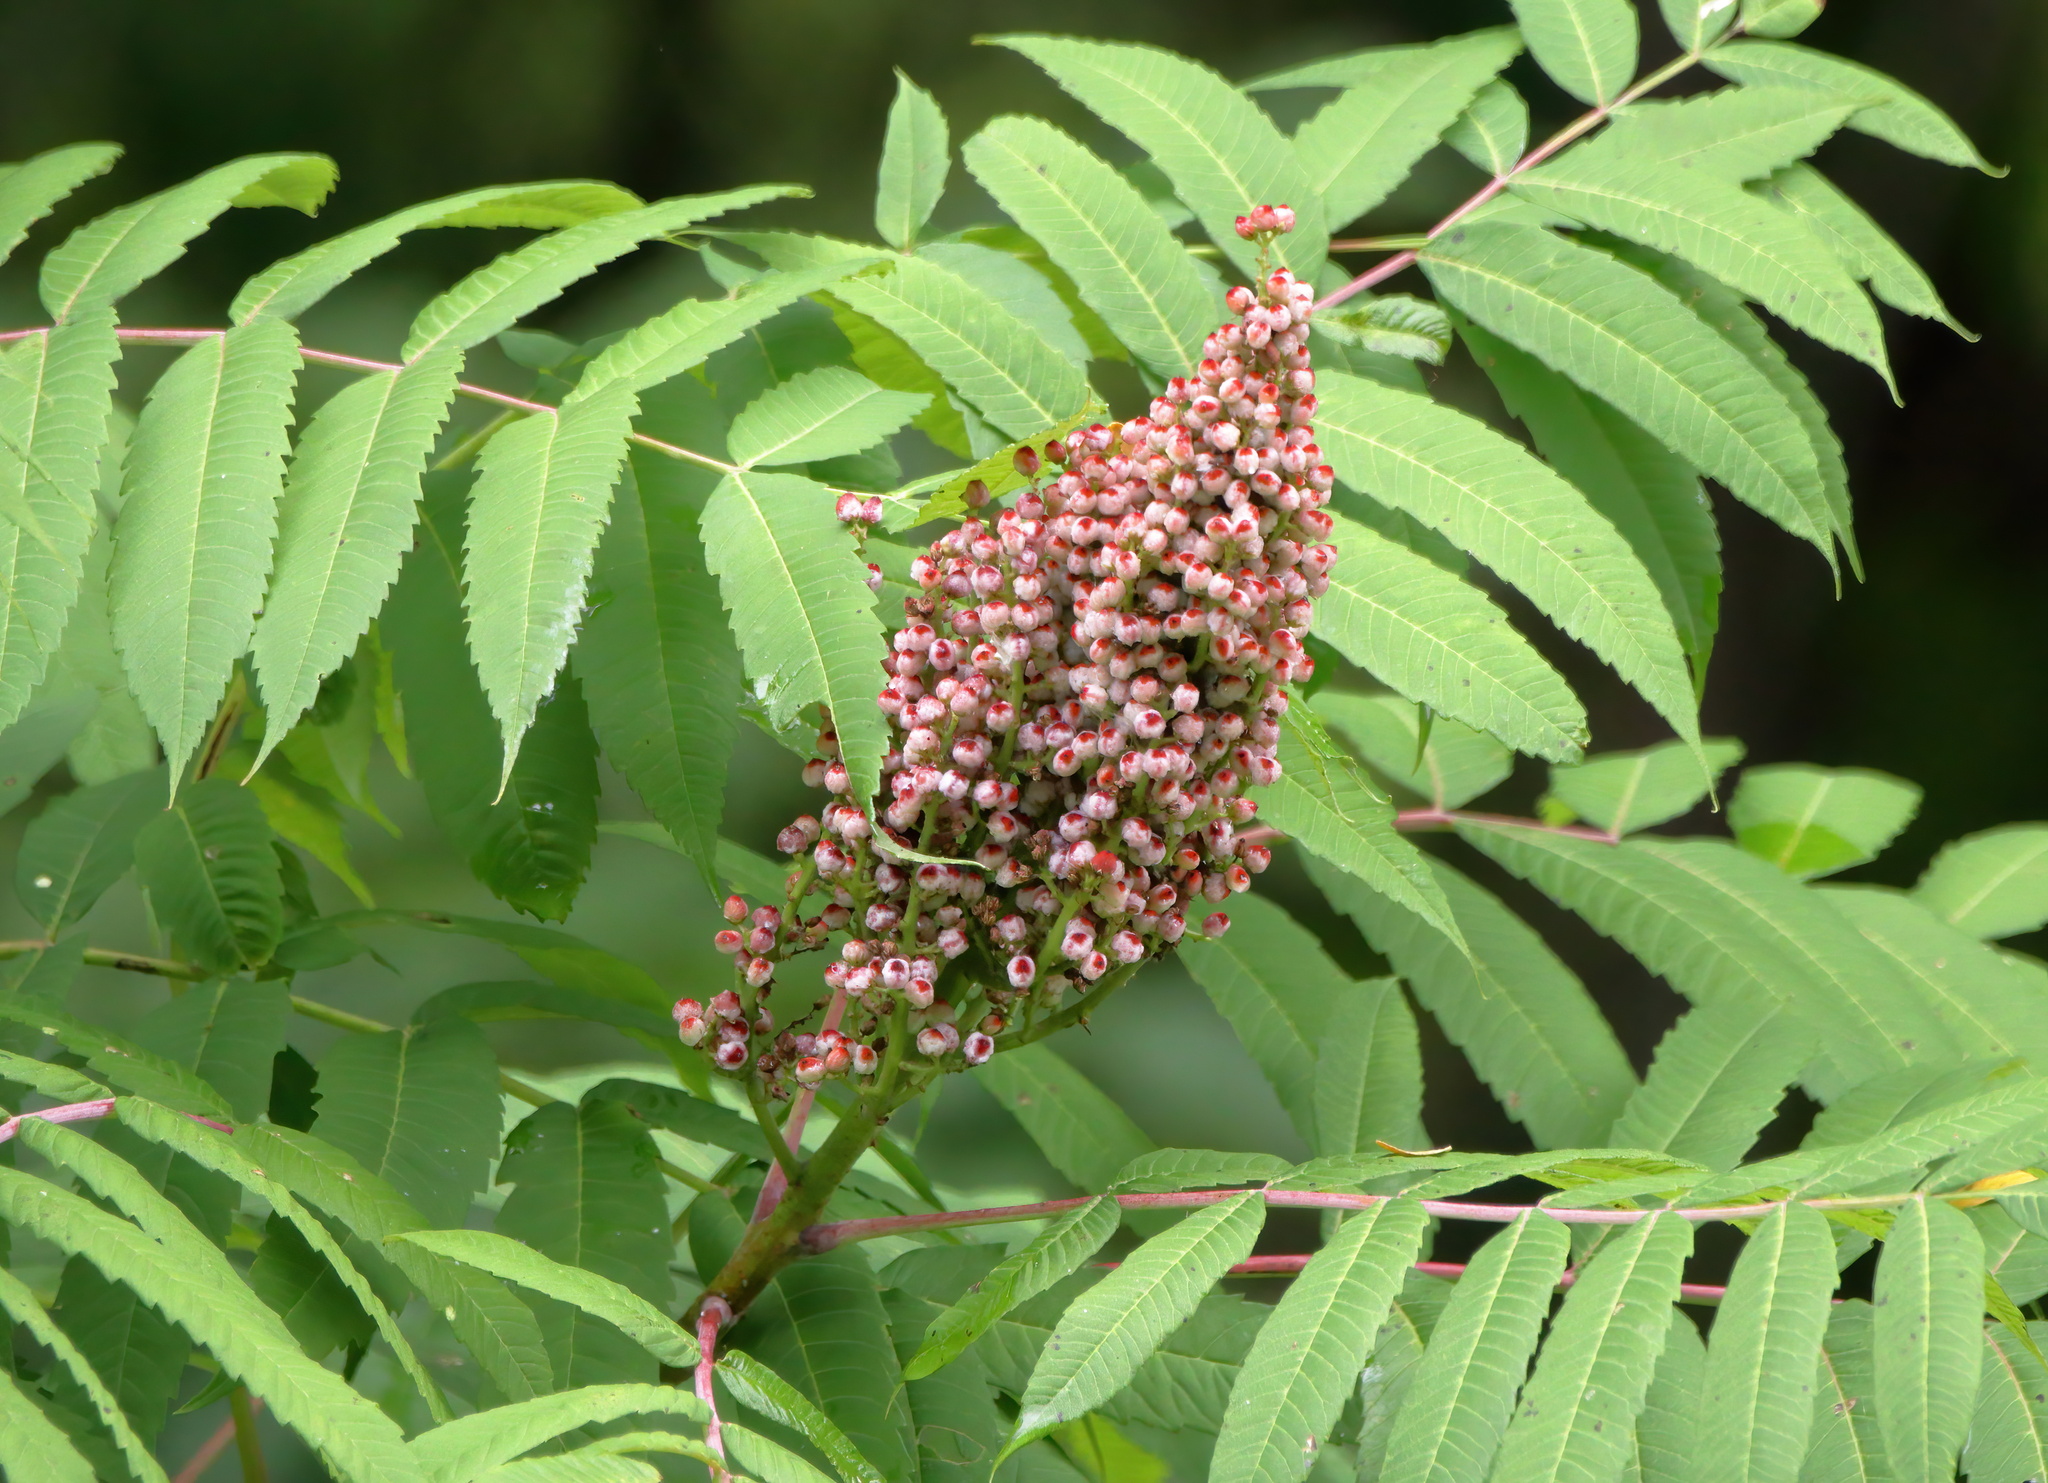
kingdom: Plantae
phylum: Tracheophyta
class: Magnoliopsida
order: Sapindales
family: Anacardiaceae
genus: Rhus
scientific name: Rhus glabra
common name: Scarlet sumac
